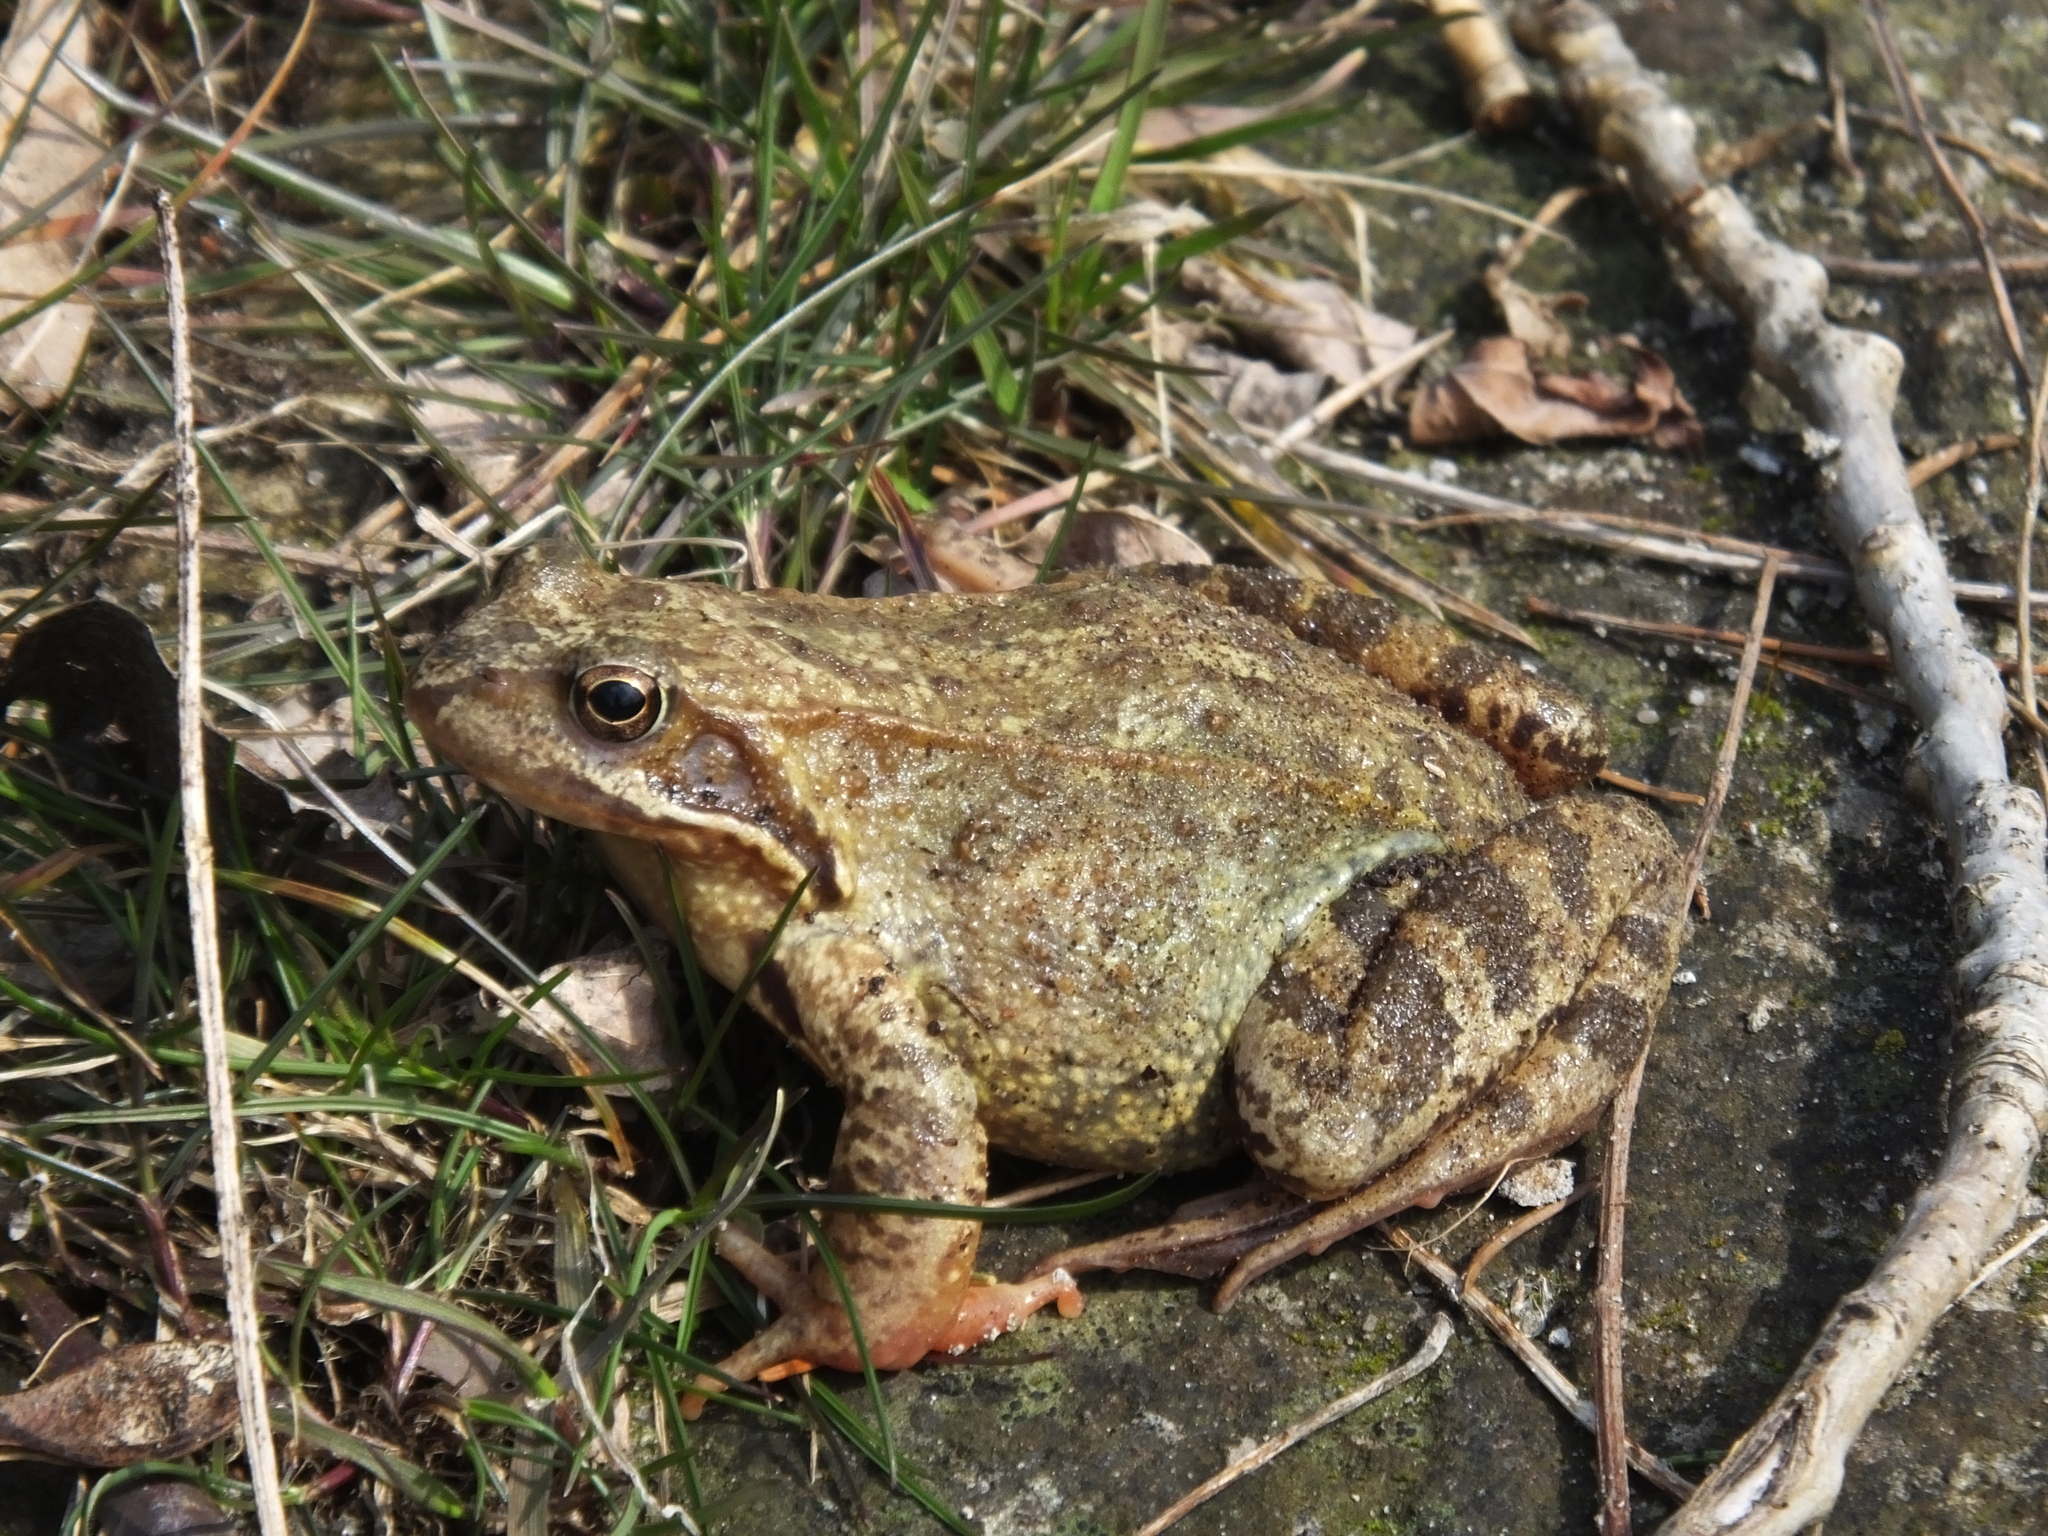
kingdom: Animalia
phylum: Chordata
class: Amphibia
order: Anura
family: Ranidae
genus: Rana
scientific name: Rana temporaria
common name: Common frog
